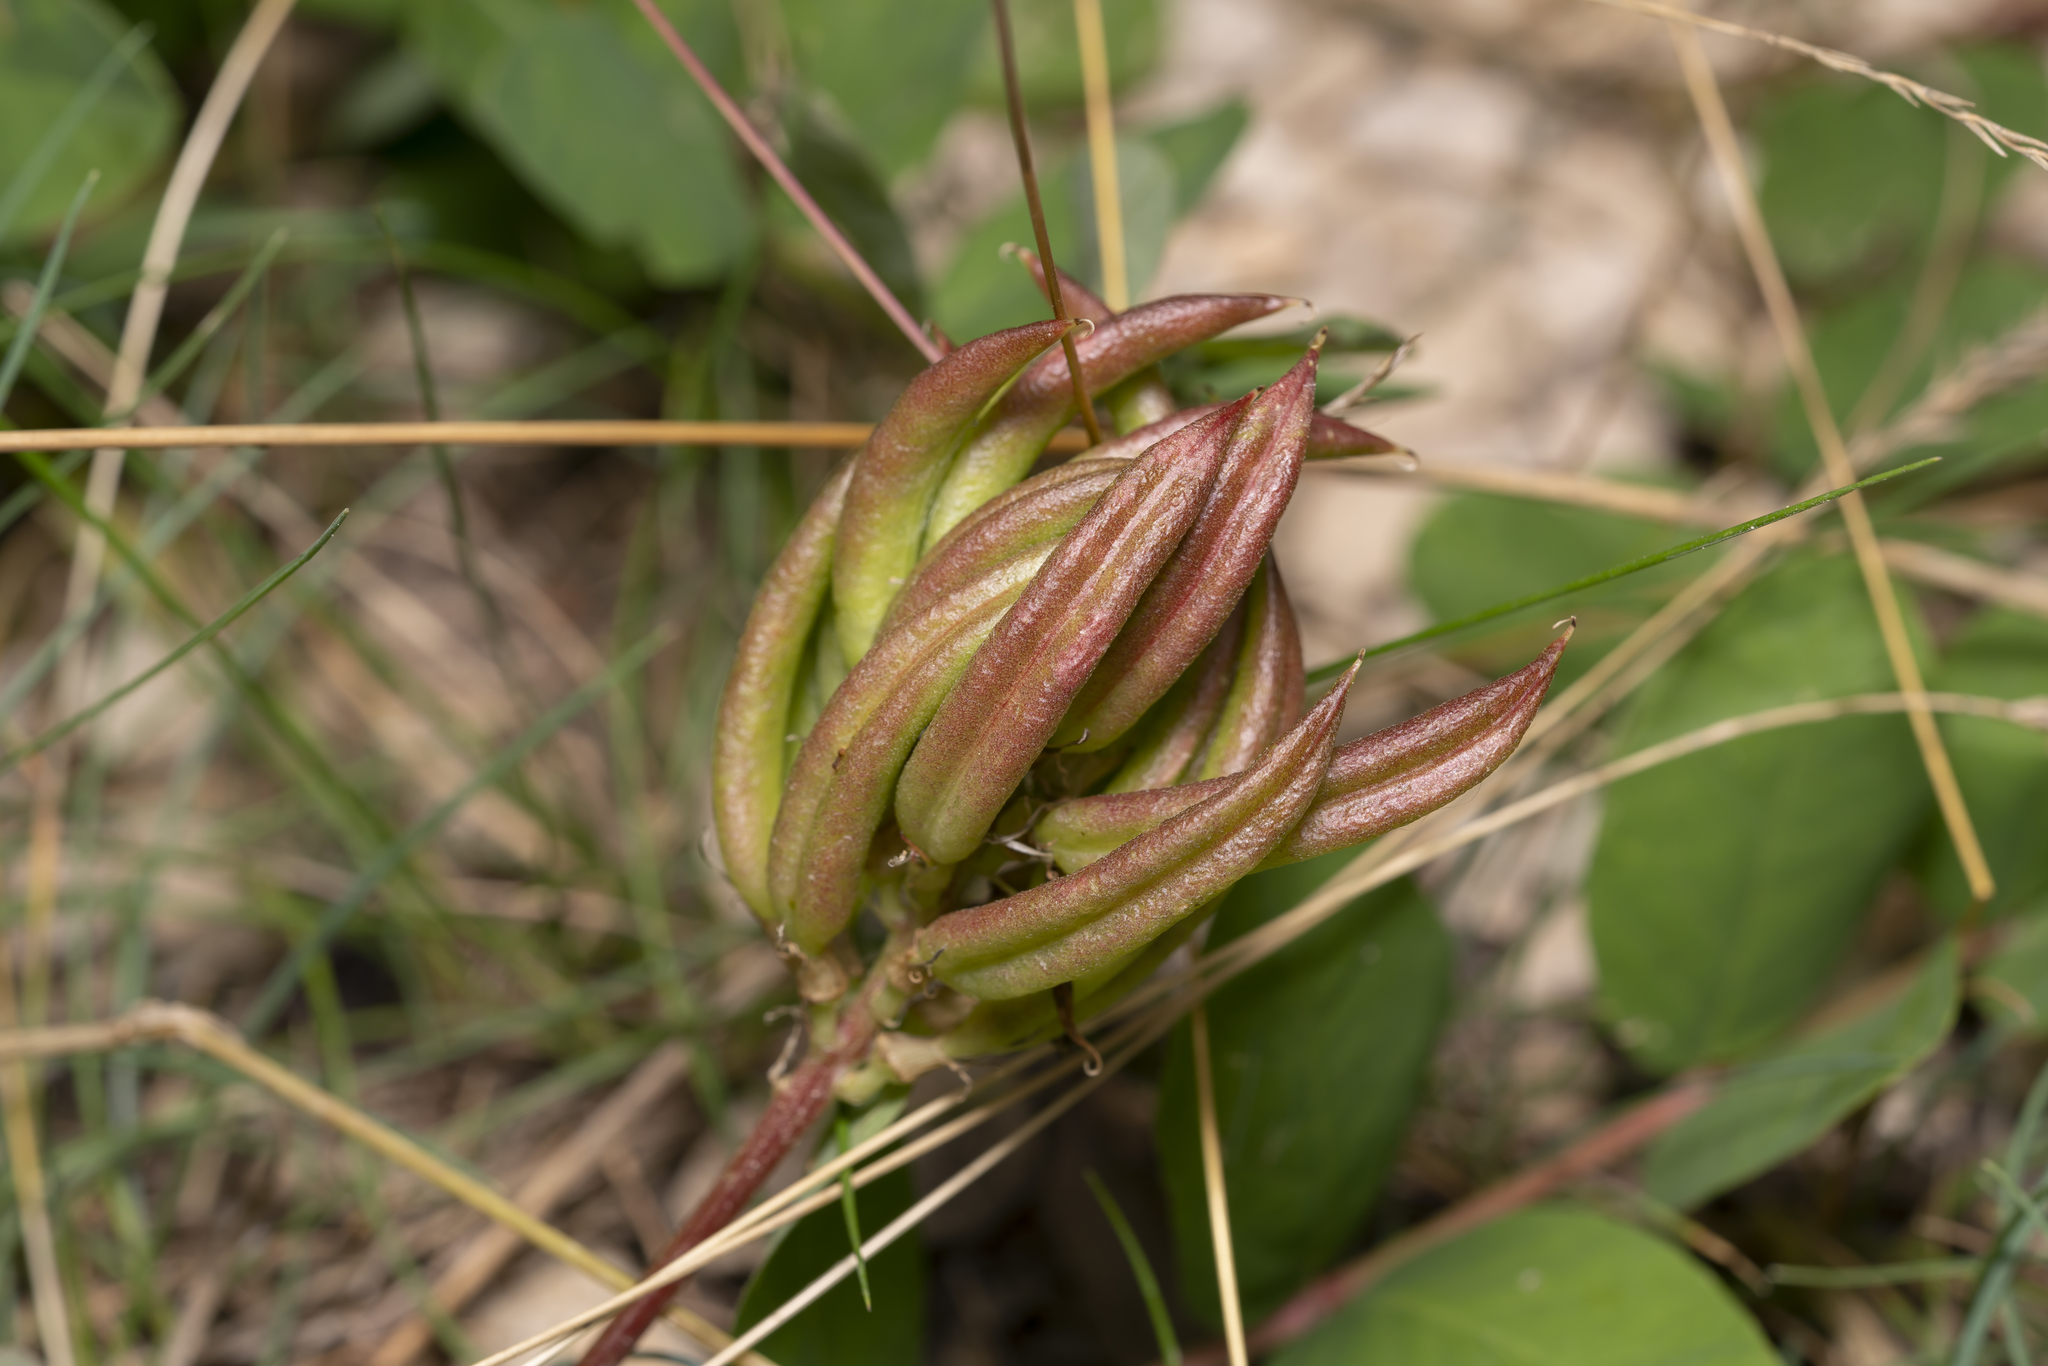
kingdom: Plantae
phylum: Tracheophyta
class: Magnoliopsida
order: Fabales
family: Fabaceae
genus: Astragalus
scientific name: Astragalus glycyphyllos
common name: Wild liquorice
